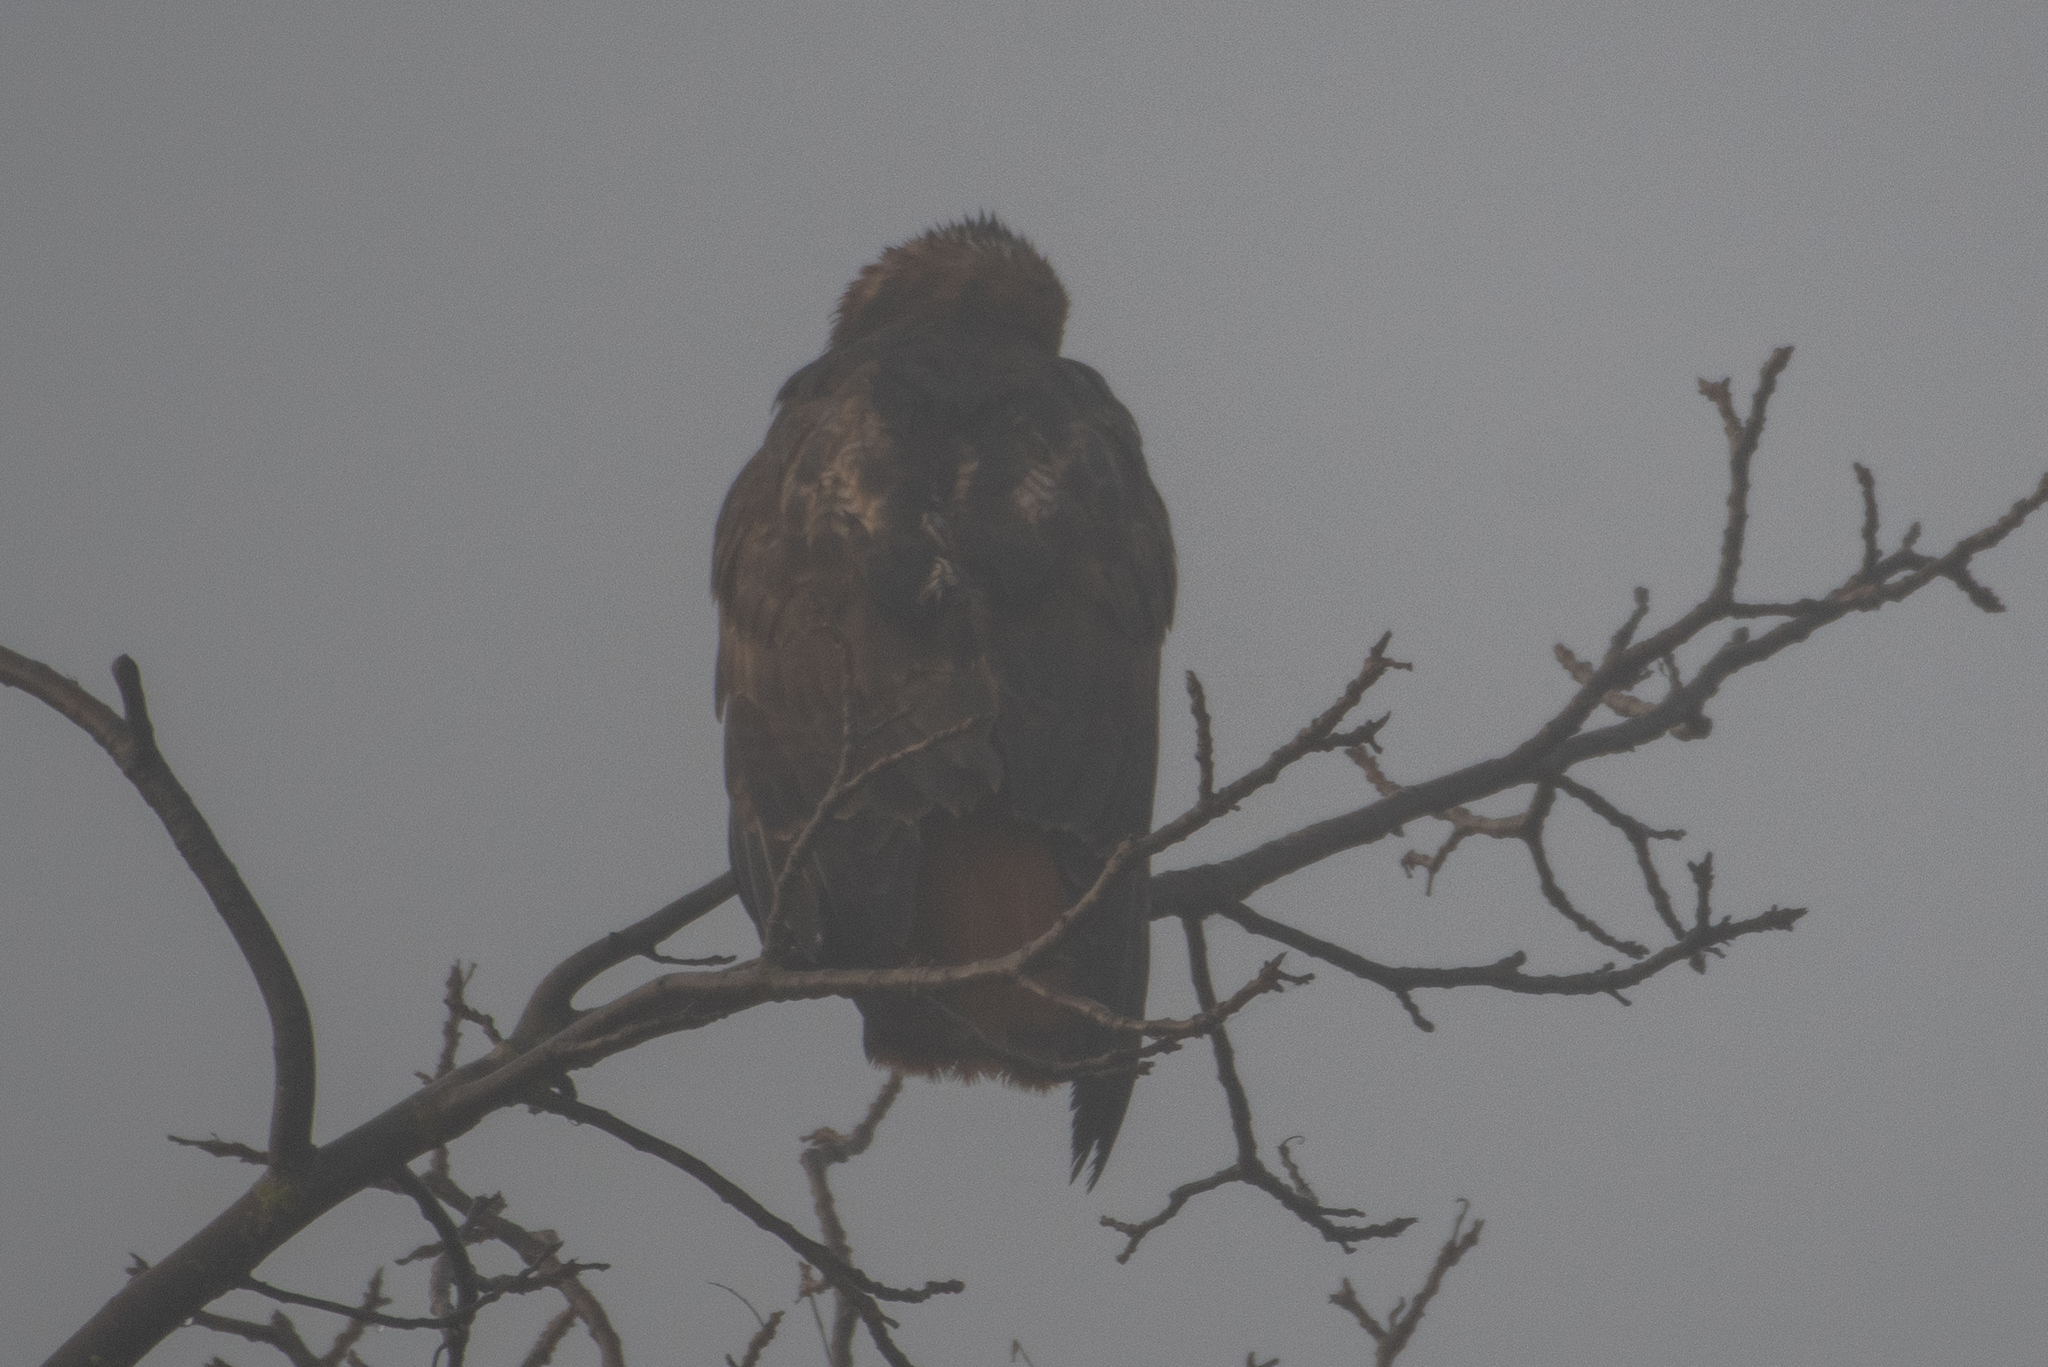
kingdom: Animalia
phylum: Chordata
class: Aves
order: Accipitriformes
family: Accipitridae
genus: Buteo
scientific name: Buteo jamaicensis
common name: Red-tailed hawk
